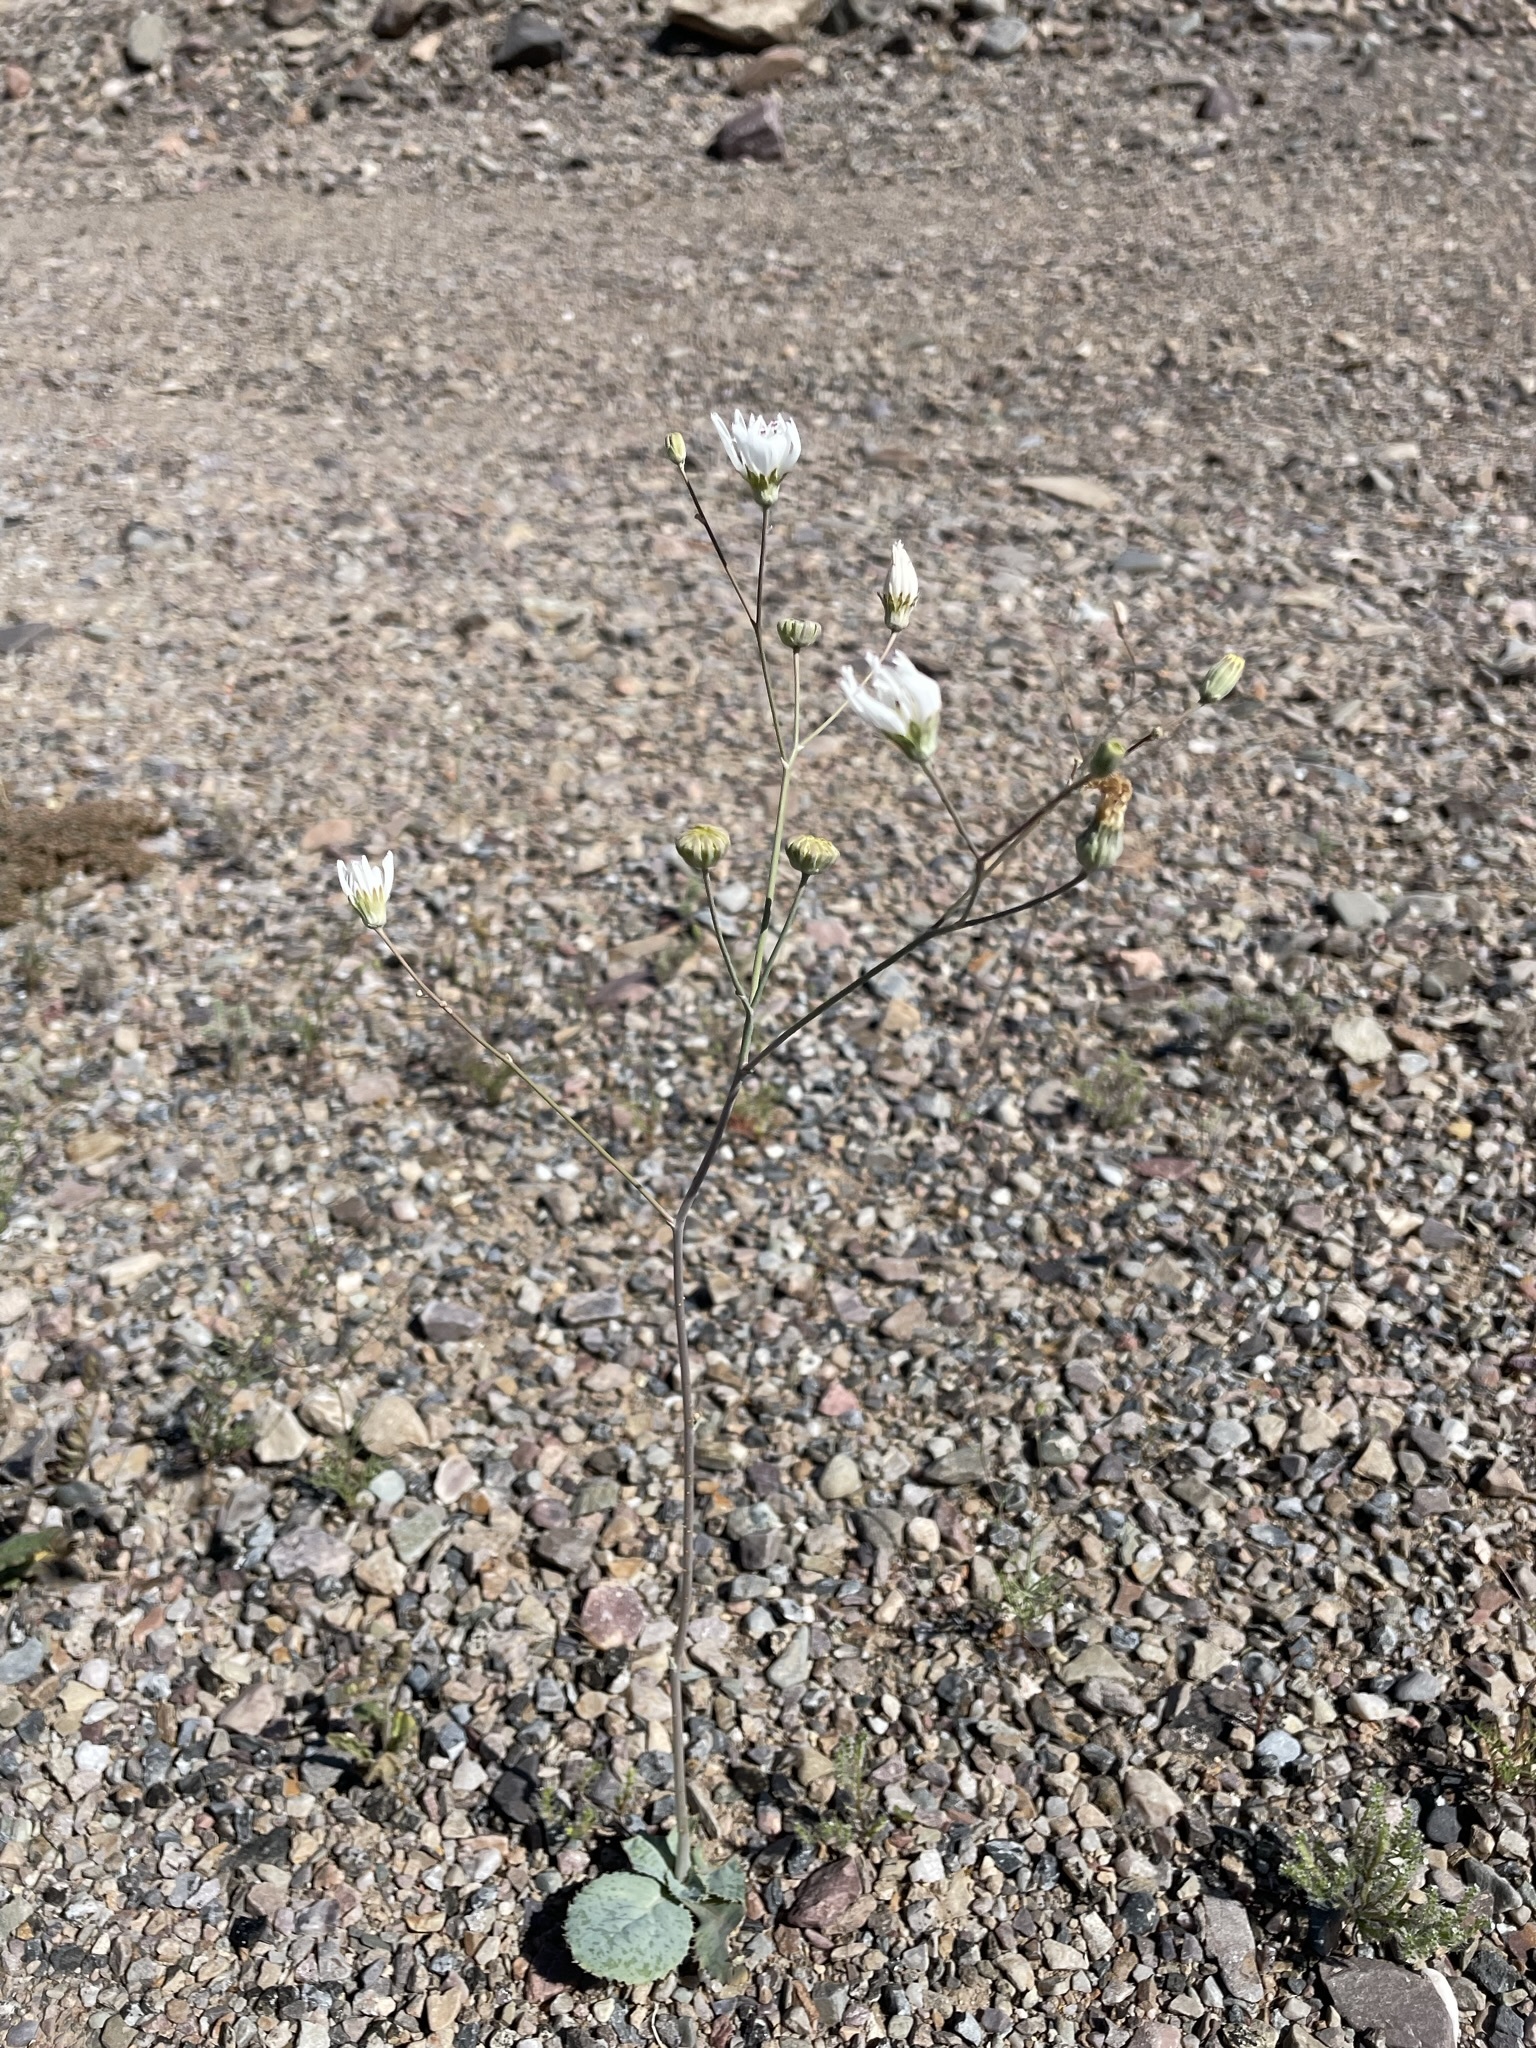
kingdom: Plantae
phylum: Tracheophyta
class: Magnoliopsida
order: Asterales
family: Asteraceae
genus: Atrichoseris
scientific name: Atrichoseris platyphylla
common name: Tobaccoweed
